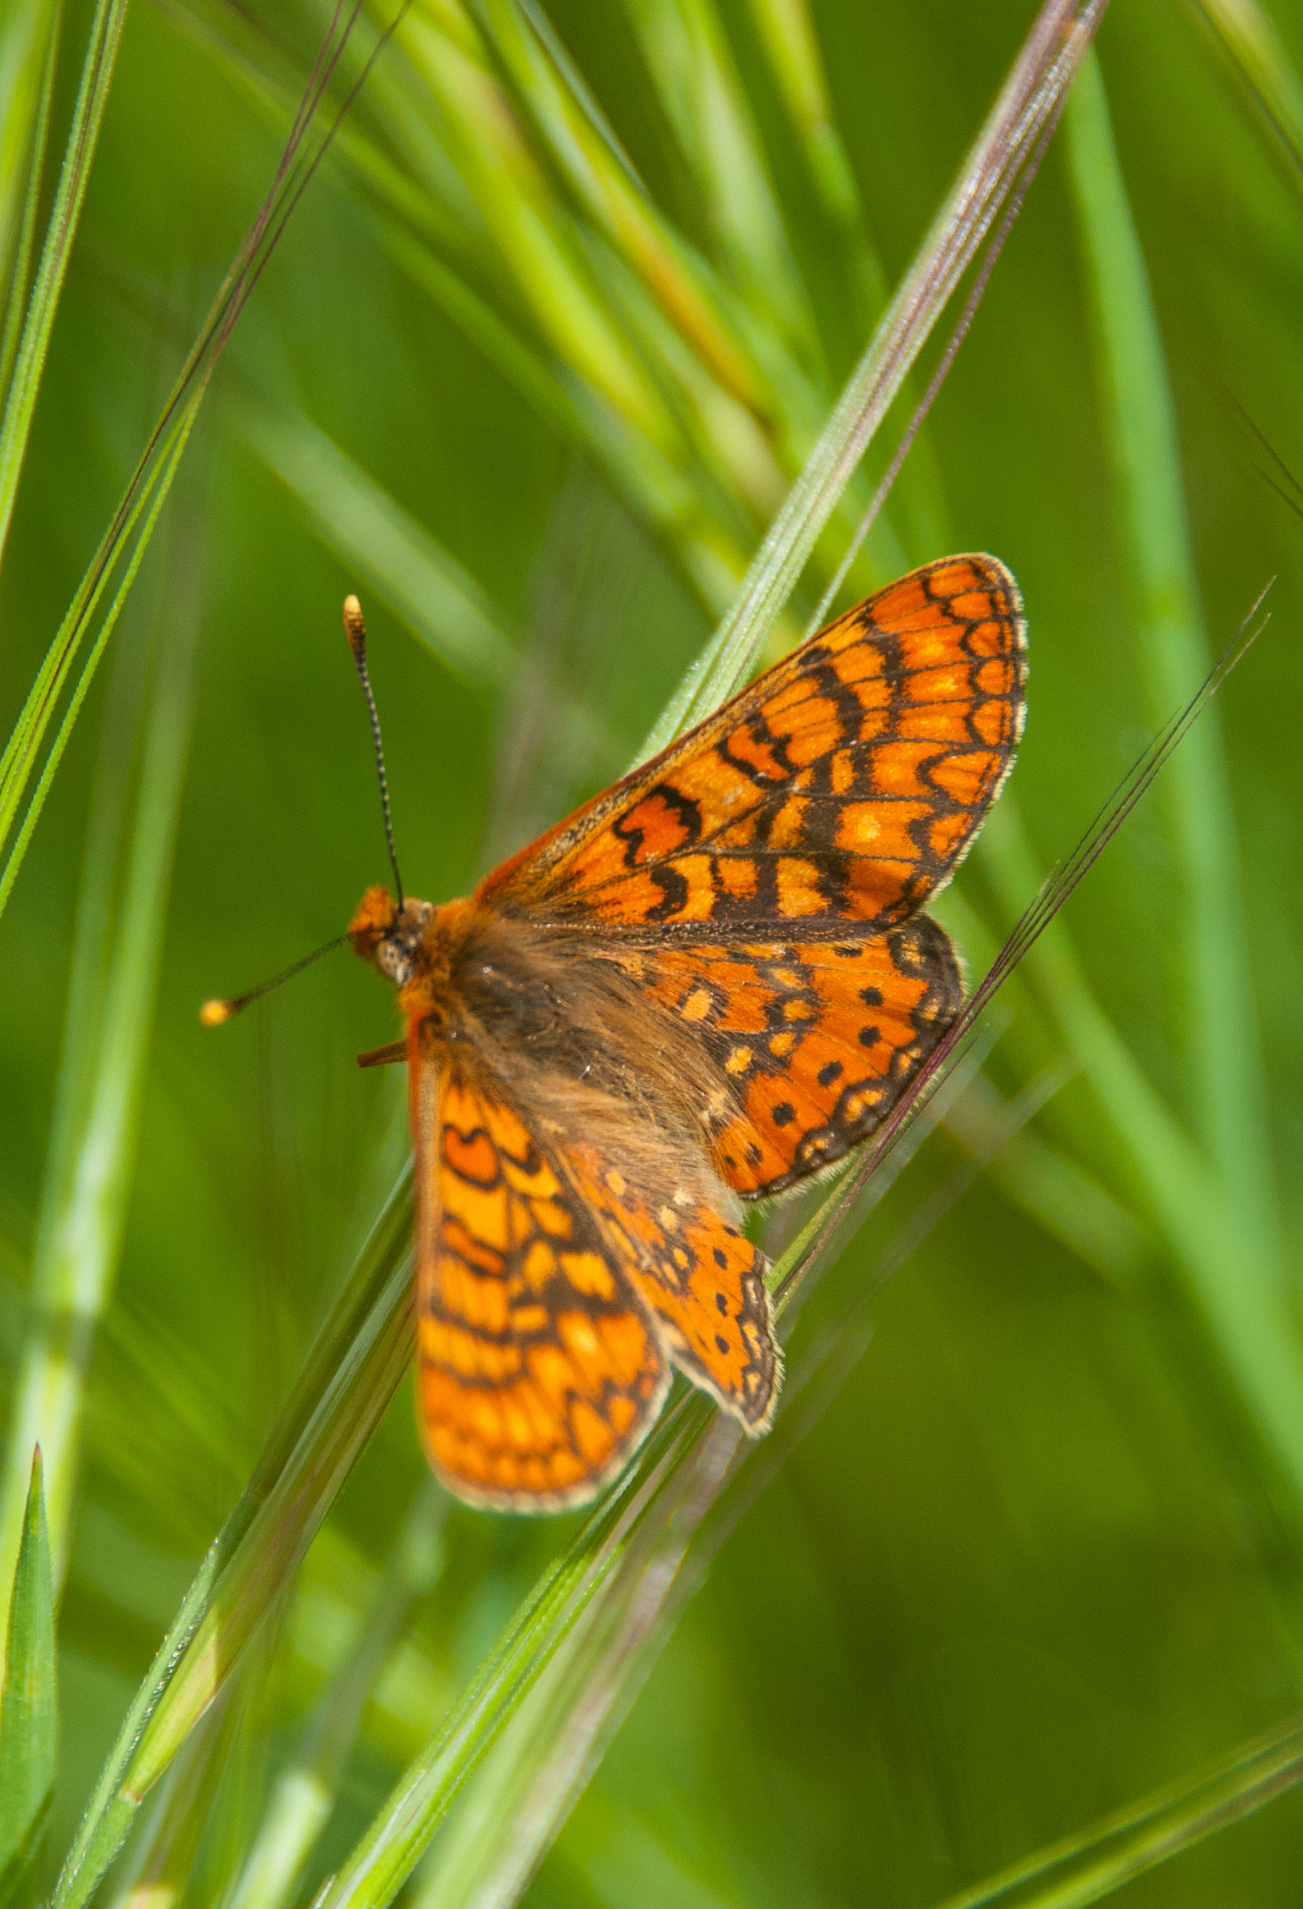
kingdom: Animalia
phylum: Arthropoda
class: Insecta
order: Lepidoptera
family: Nymphalidae
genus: Euphydryas
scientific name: Euphydryas aurinia
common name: Marsh fritillary
